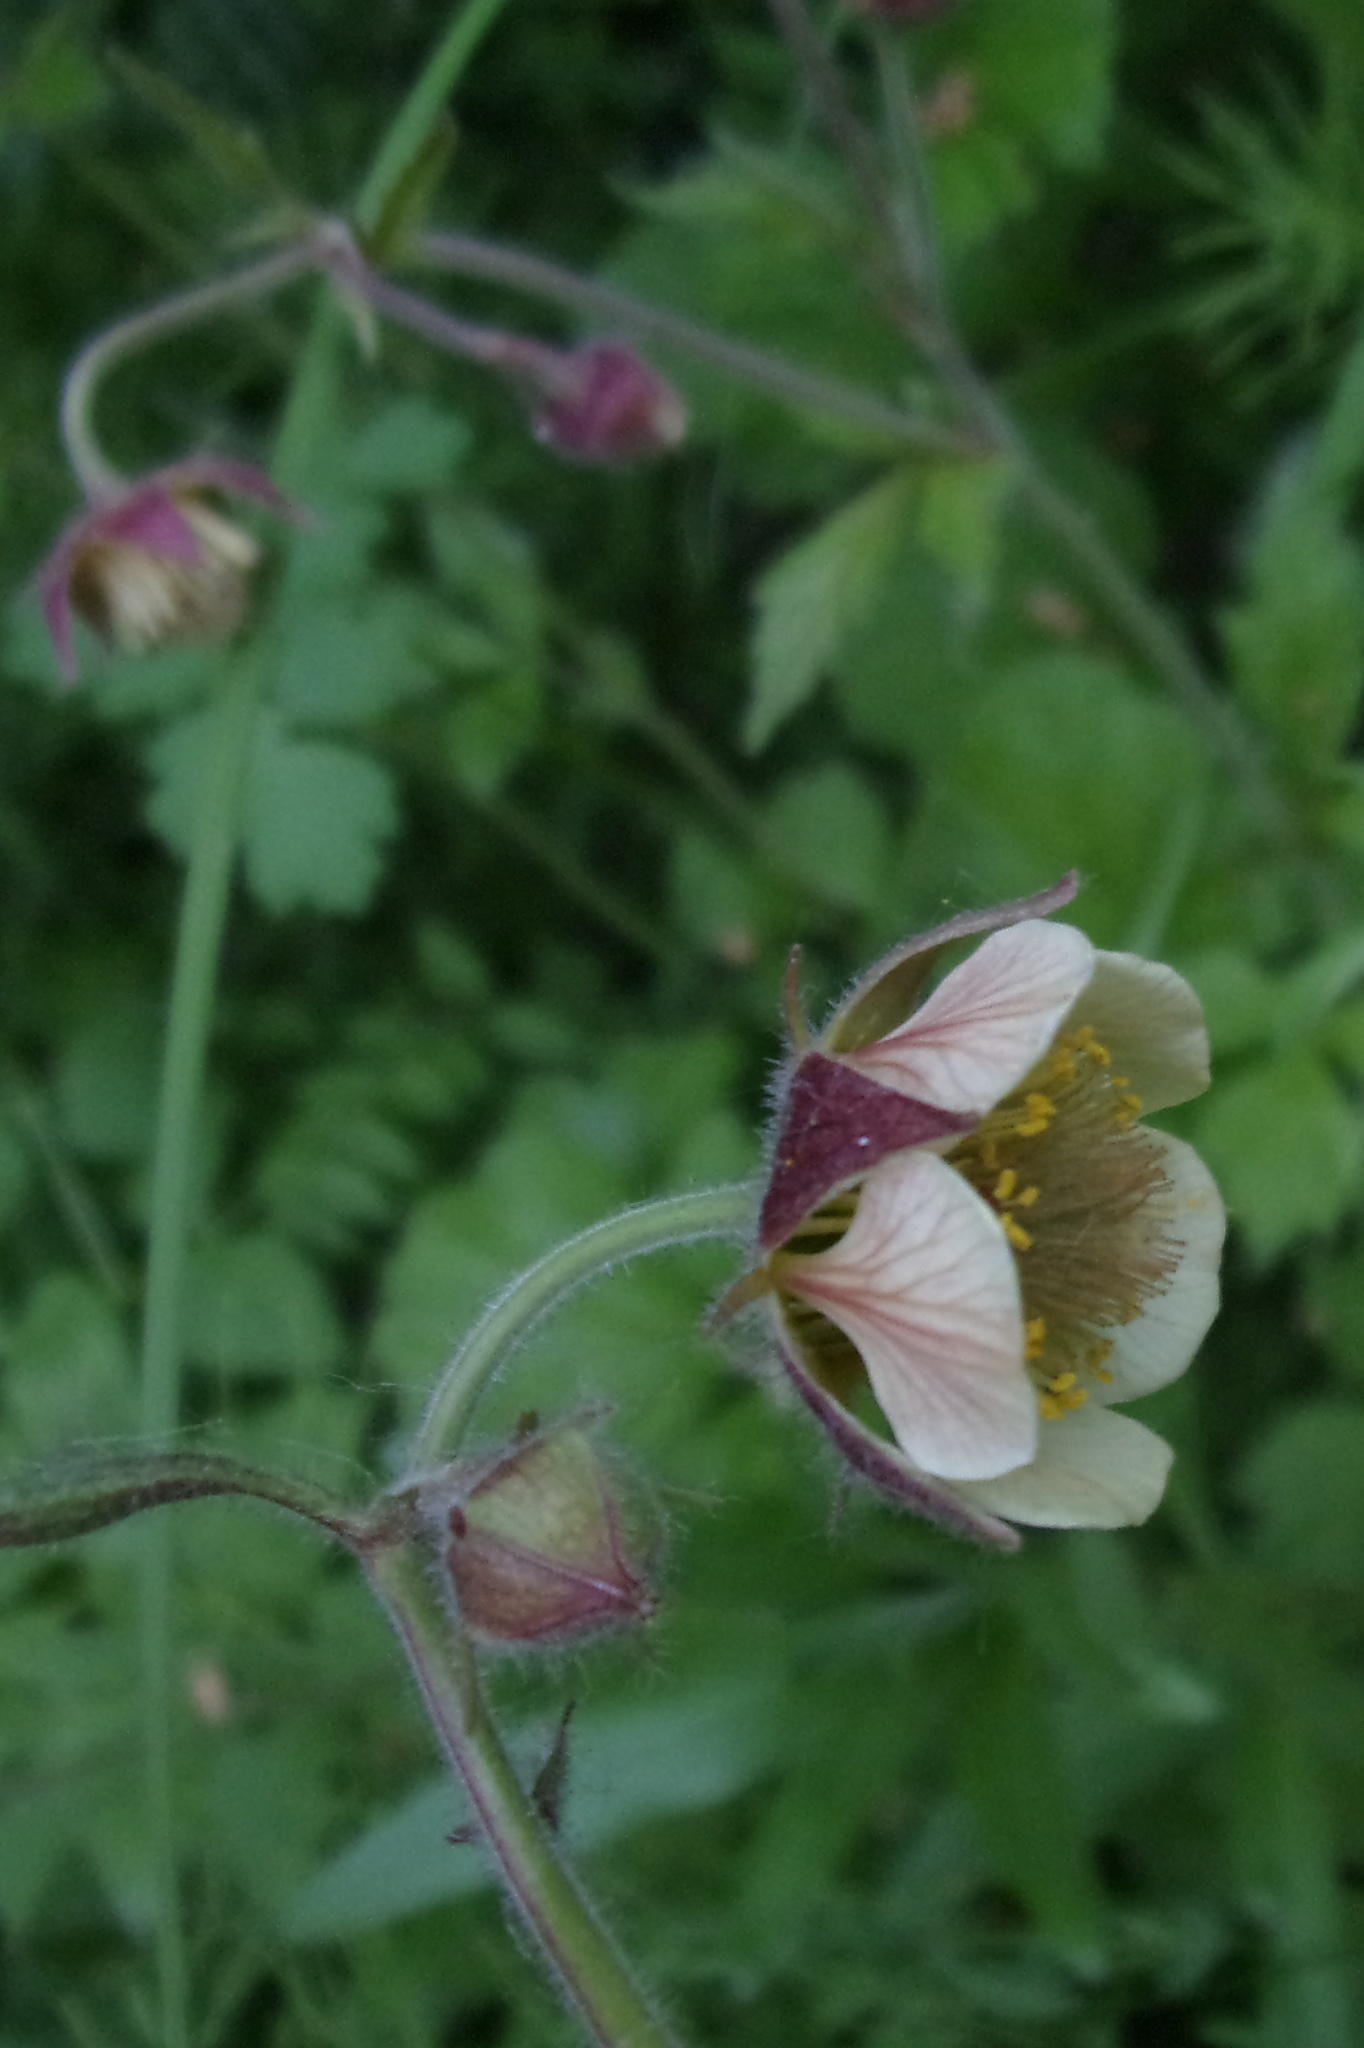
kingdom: Plantae
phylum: Tracheophyta
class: Magnoliopsida
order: Rosales
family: Rosaceae
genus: Geum
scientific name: Geum rivale
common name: Water avens
